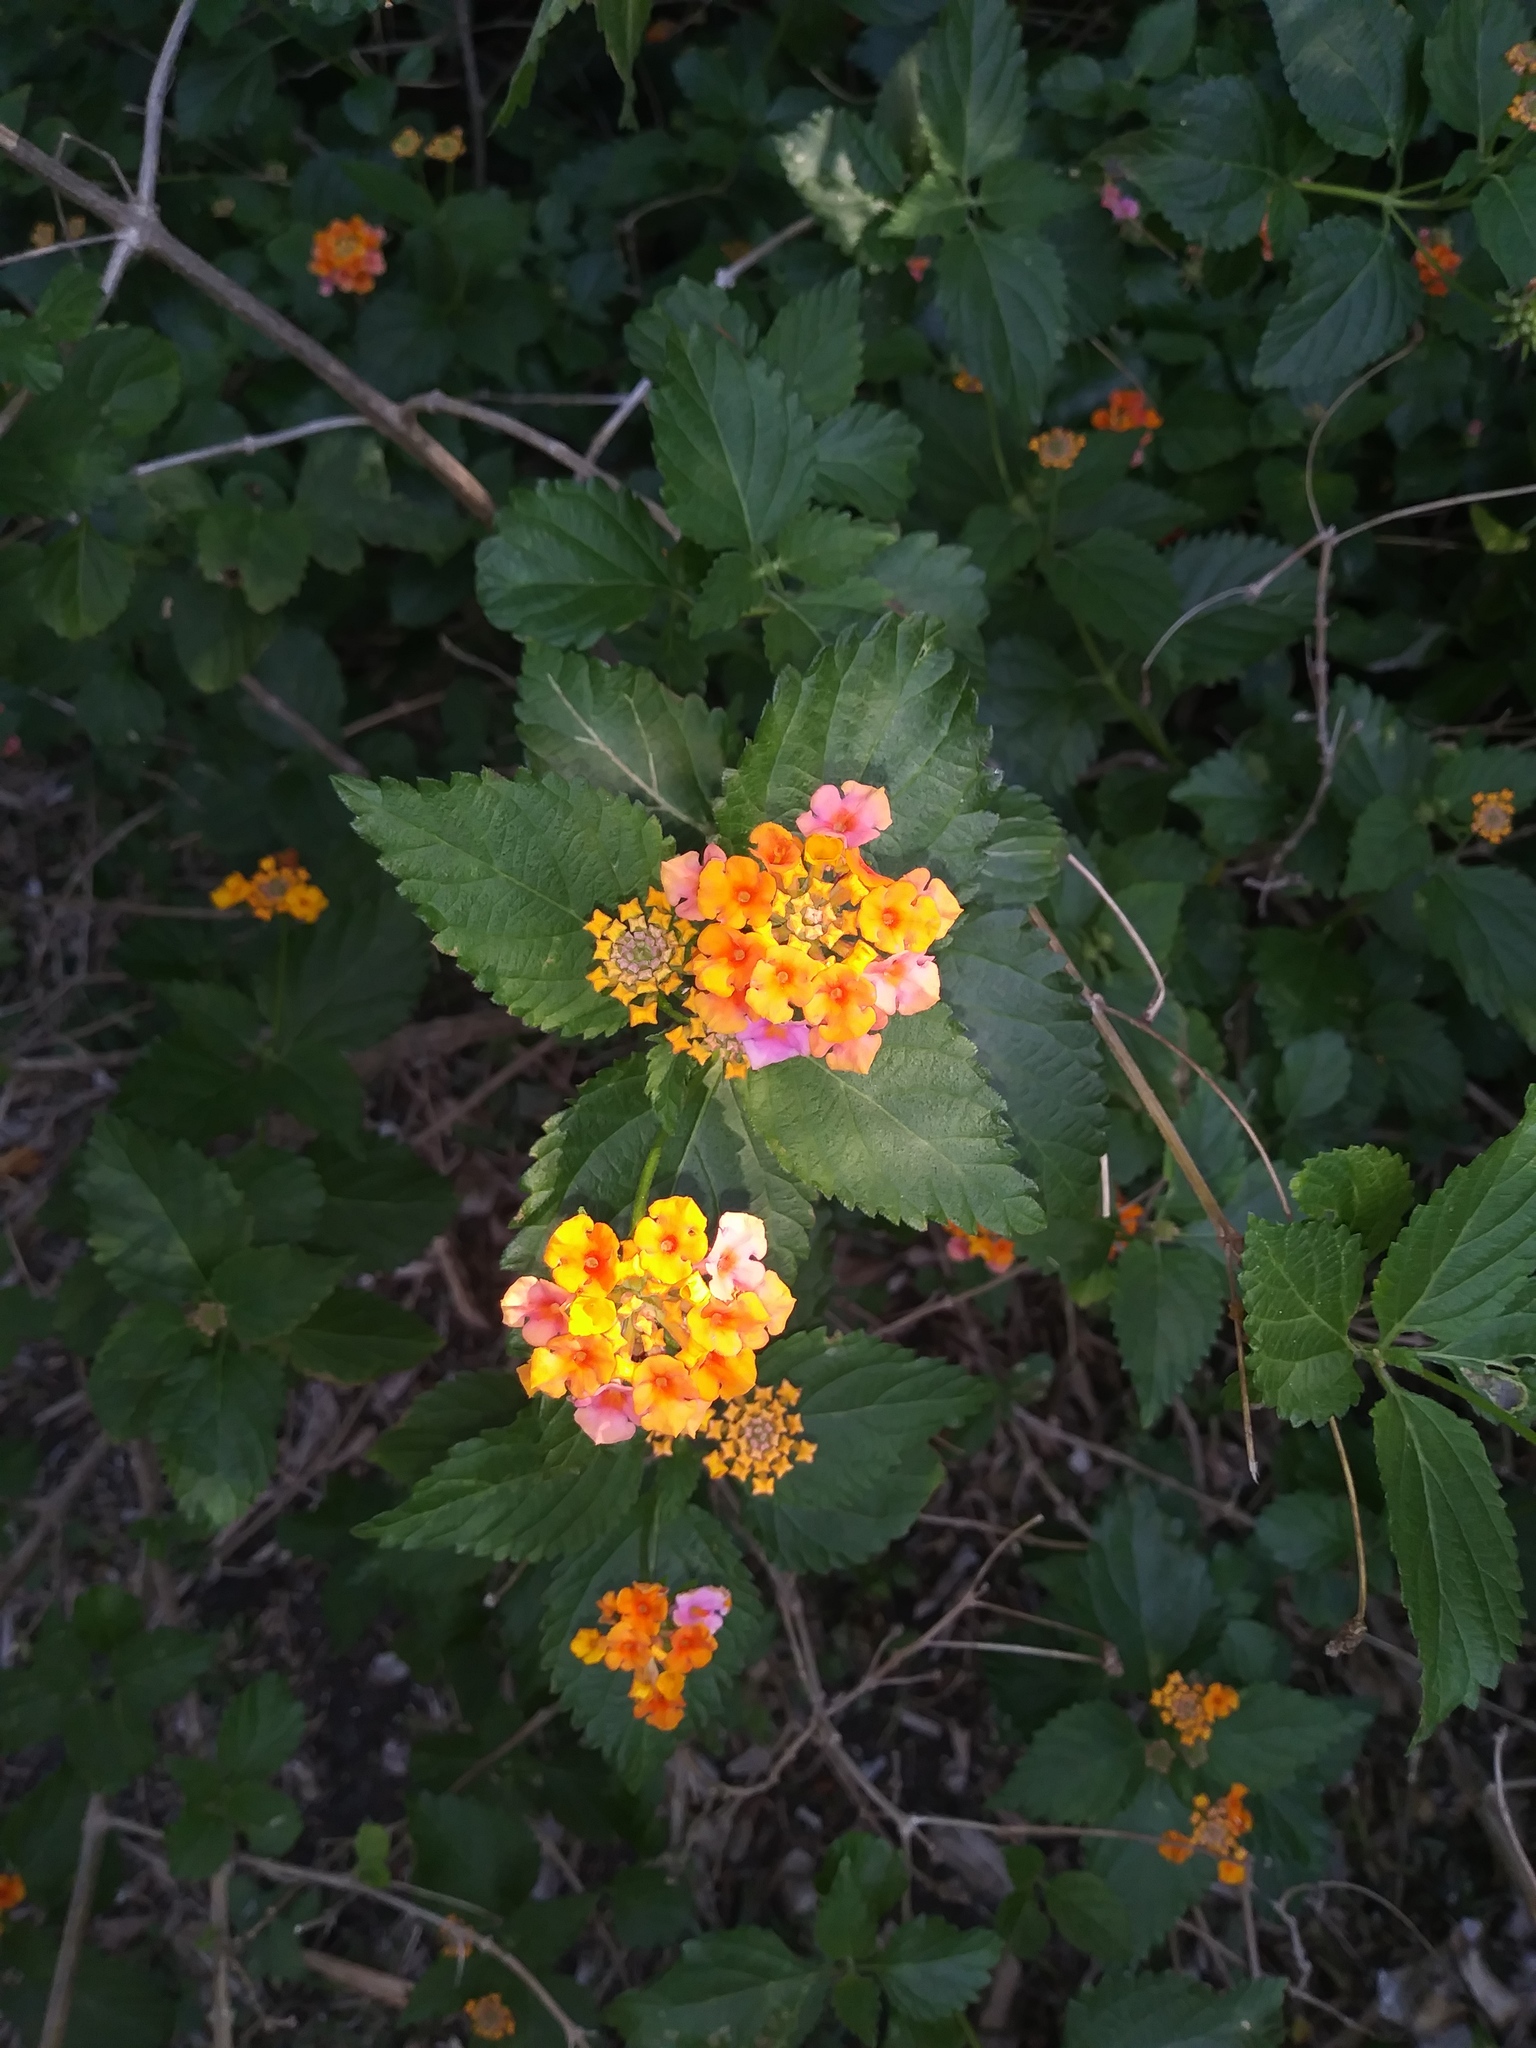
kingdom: Plantae
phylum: Tracheophyta
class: Magnoliopsida
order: Lamiales
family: Verbenaceae
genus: Lantana
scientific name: Lantana camara
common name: Lantana
